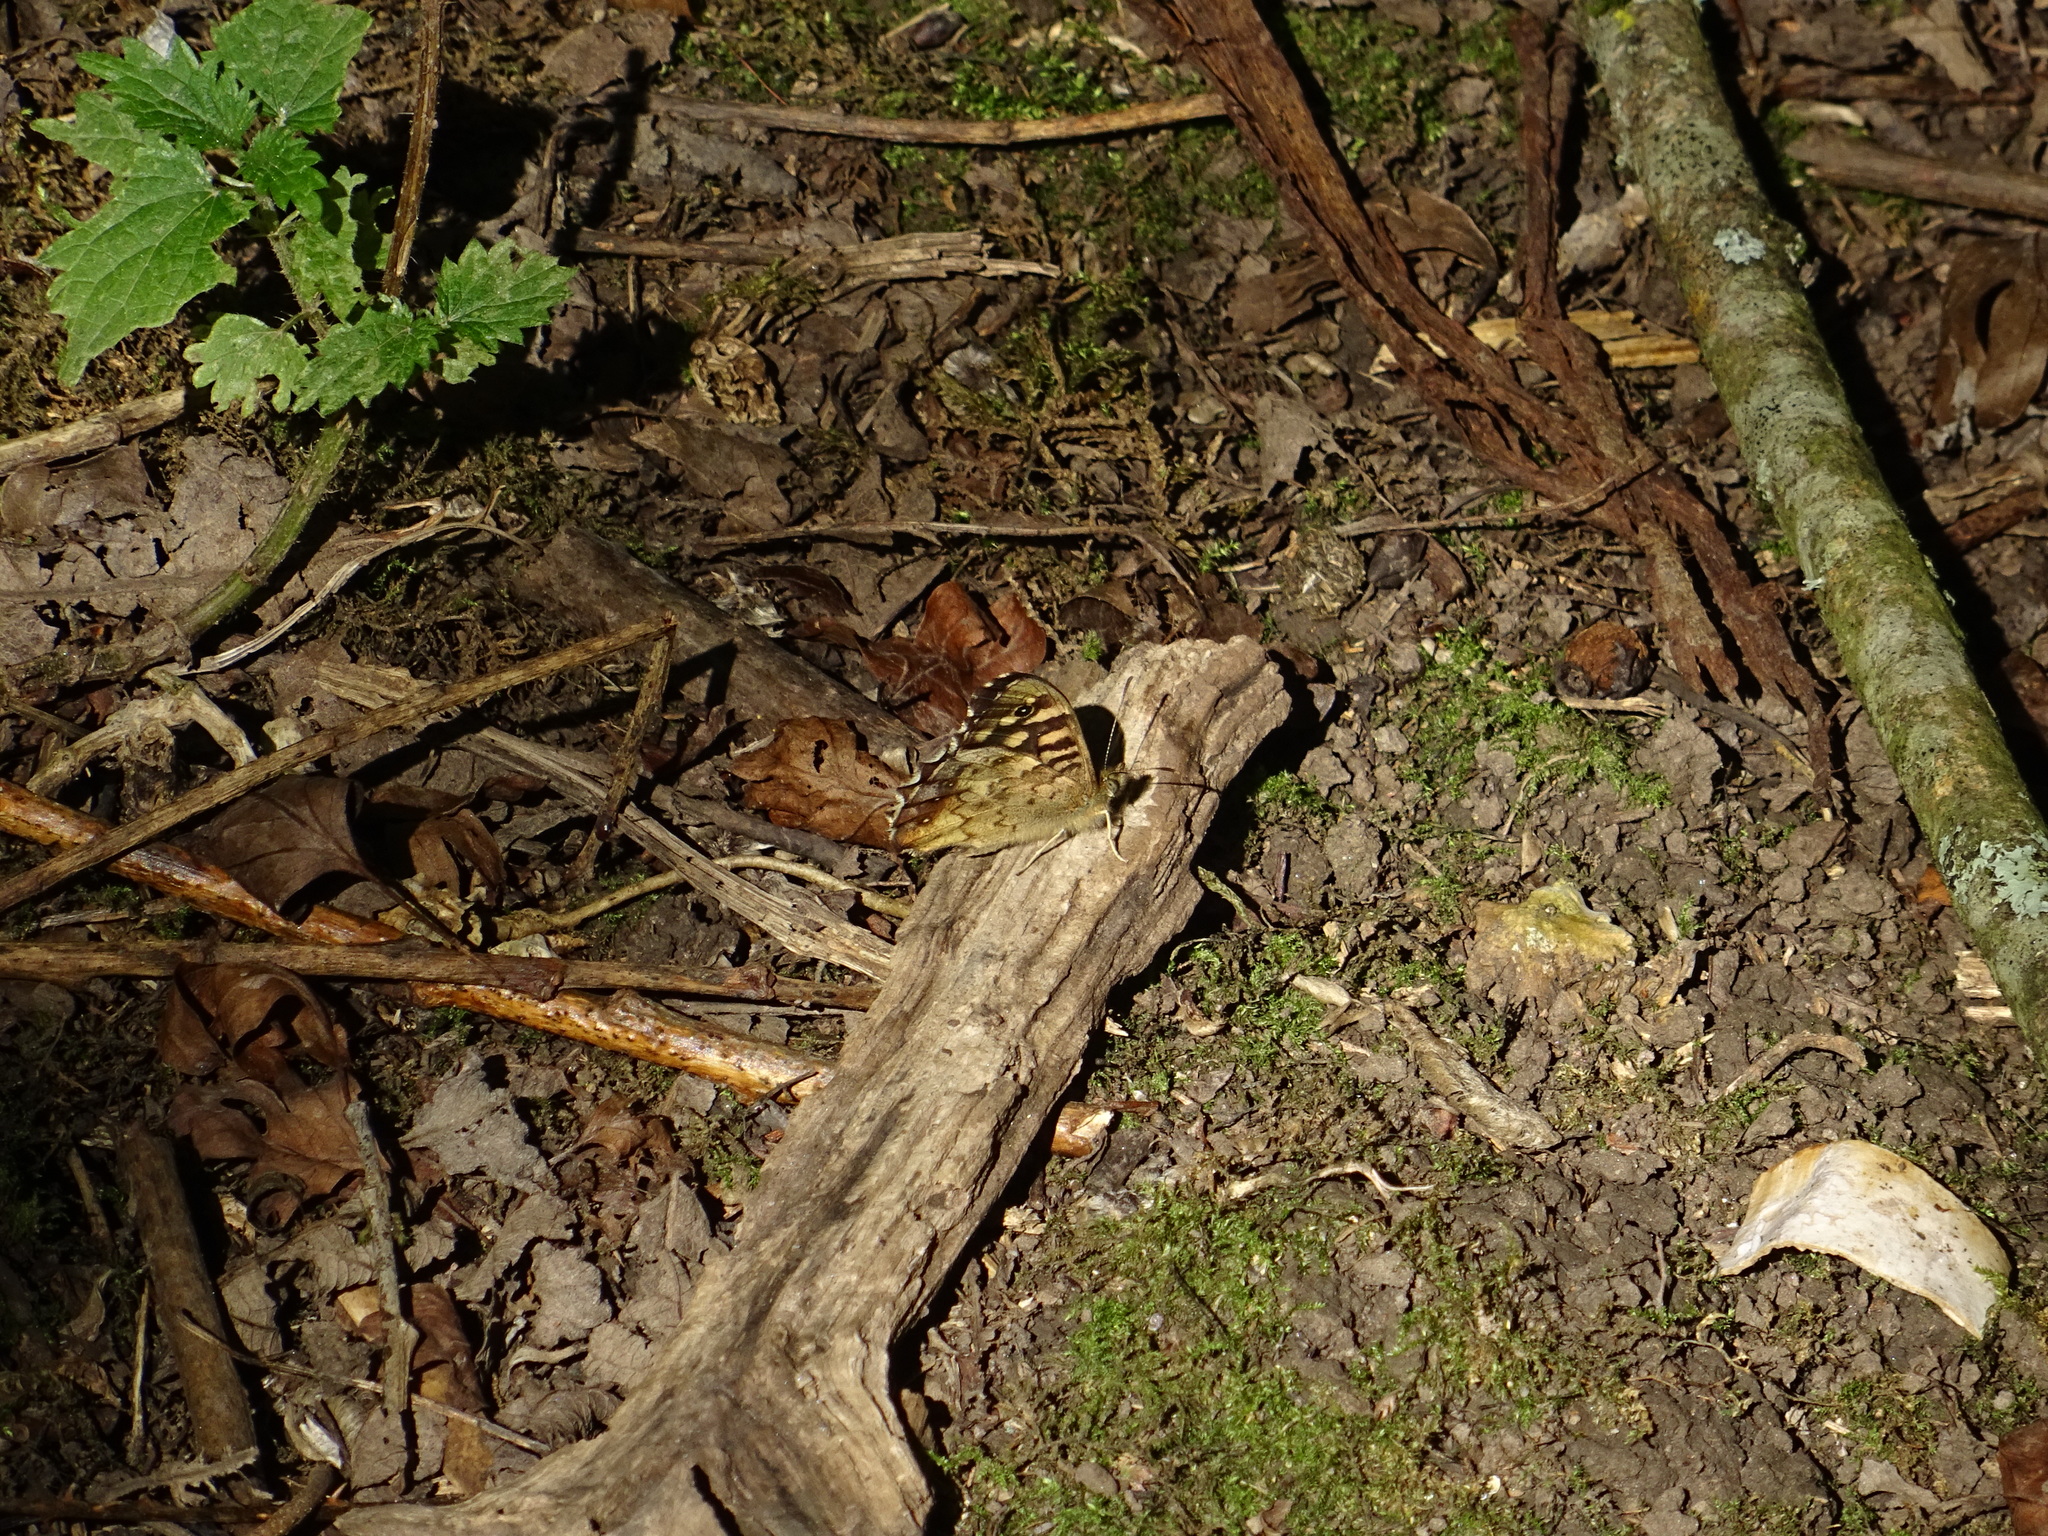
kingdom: Animalia
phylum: Arthropoda
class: Insecta
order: Lepidoptera
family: Nymphalidae
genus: Pararge
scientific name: Pararge aegeria
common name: Speckled wood
